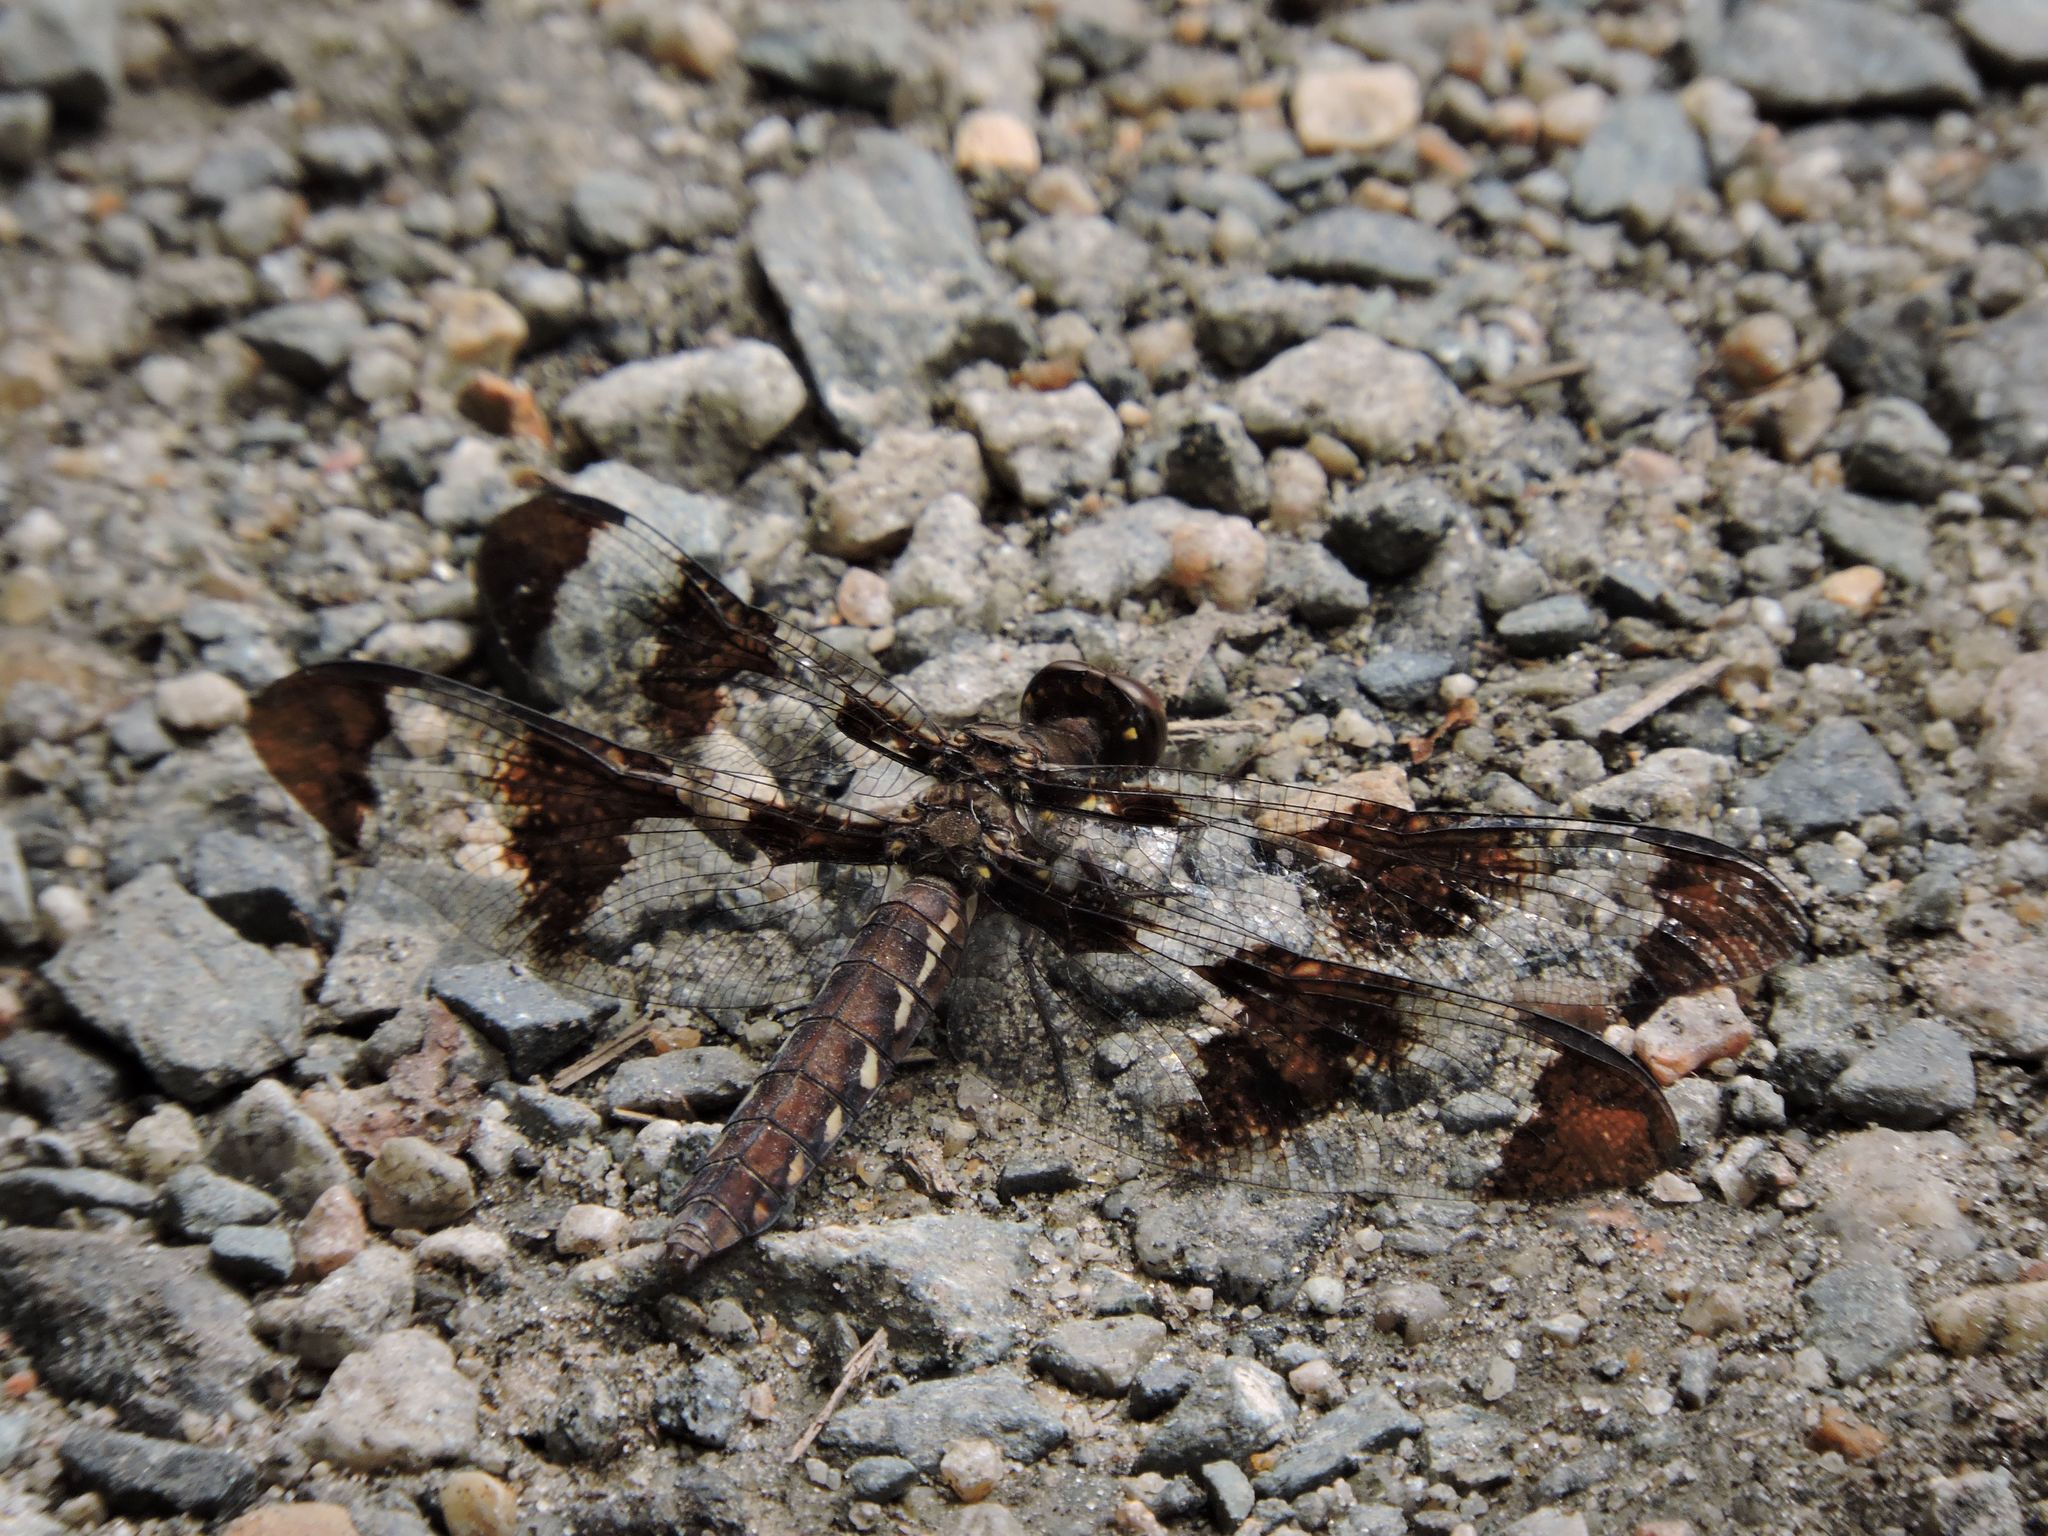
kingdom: Animalia
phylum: Arthropoda
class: Insecta
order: Odonata
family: Libellulidae
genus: Plathemis
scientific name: Plathemis lydia
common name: Common whitetail
